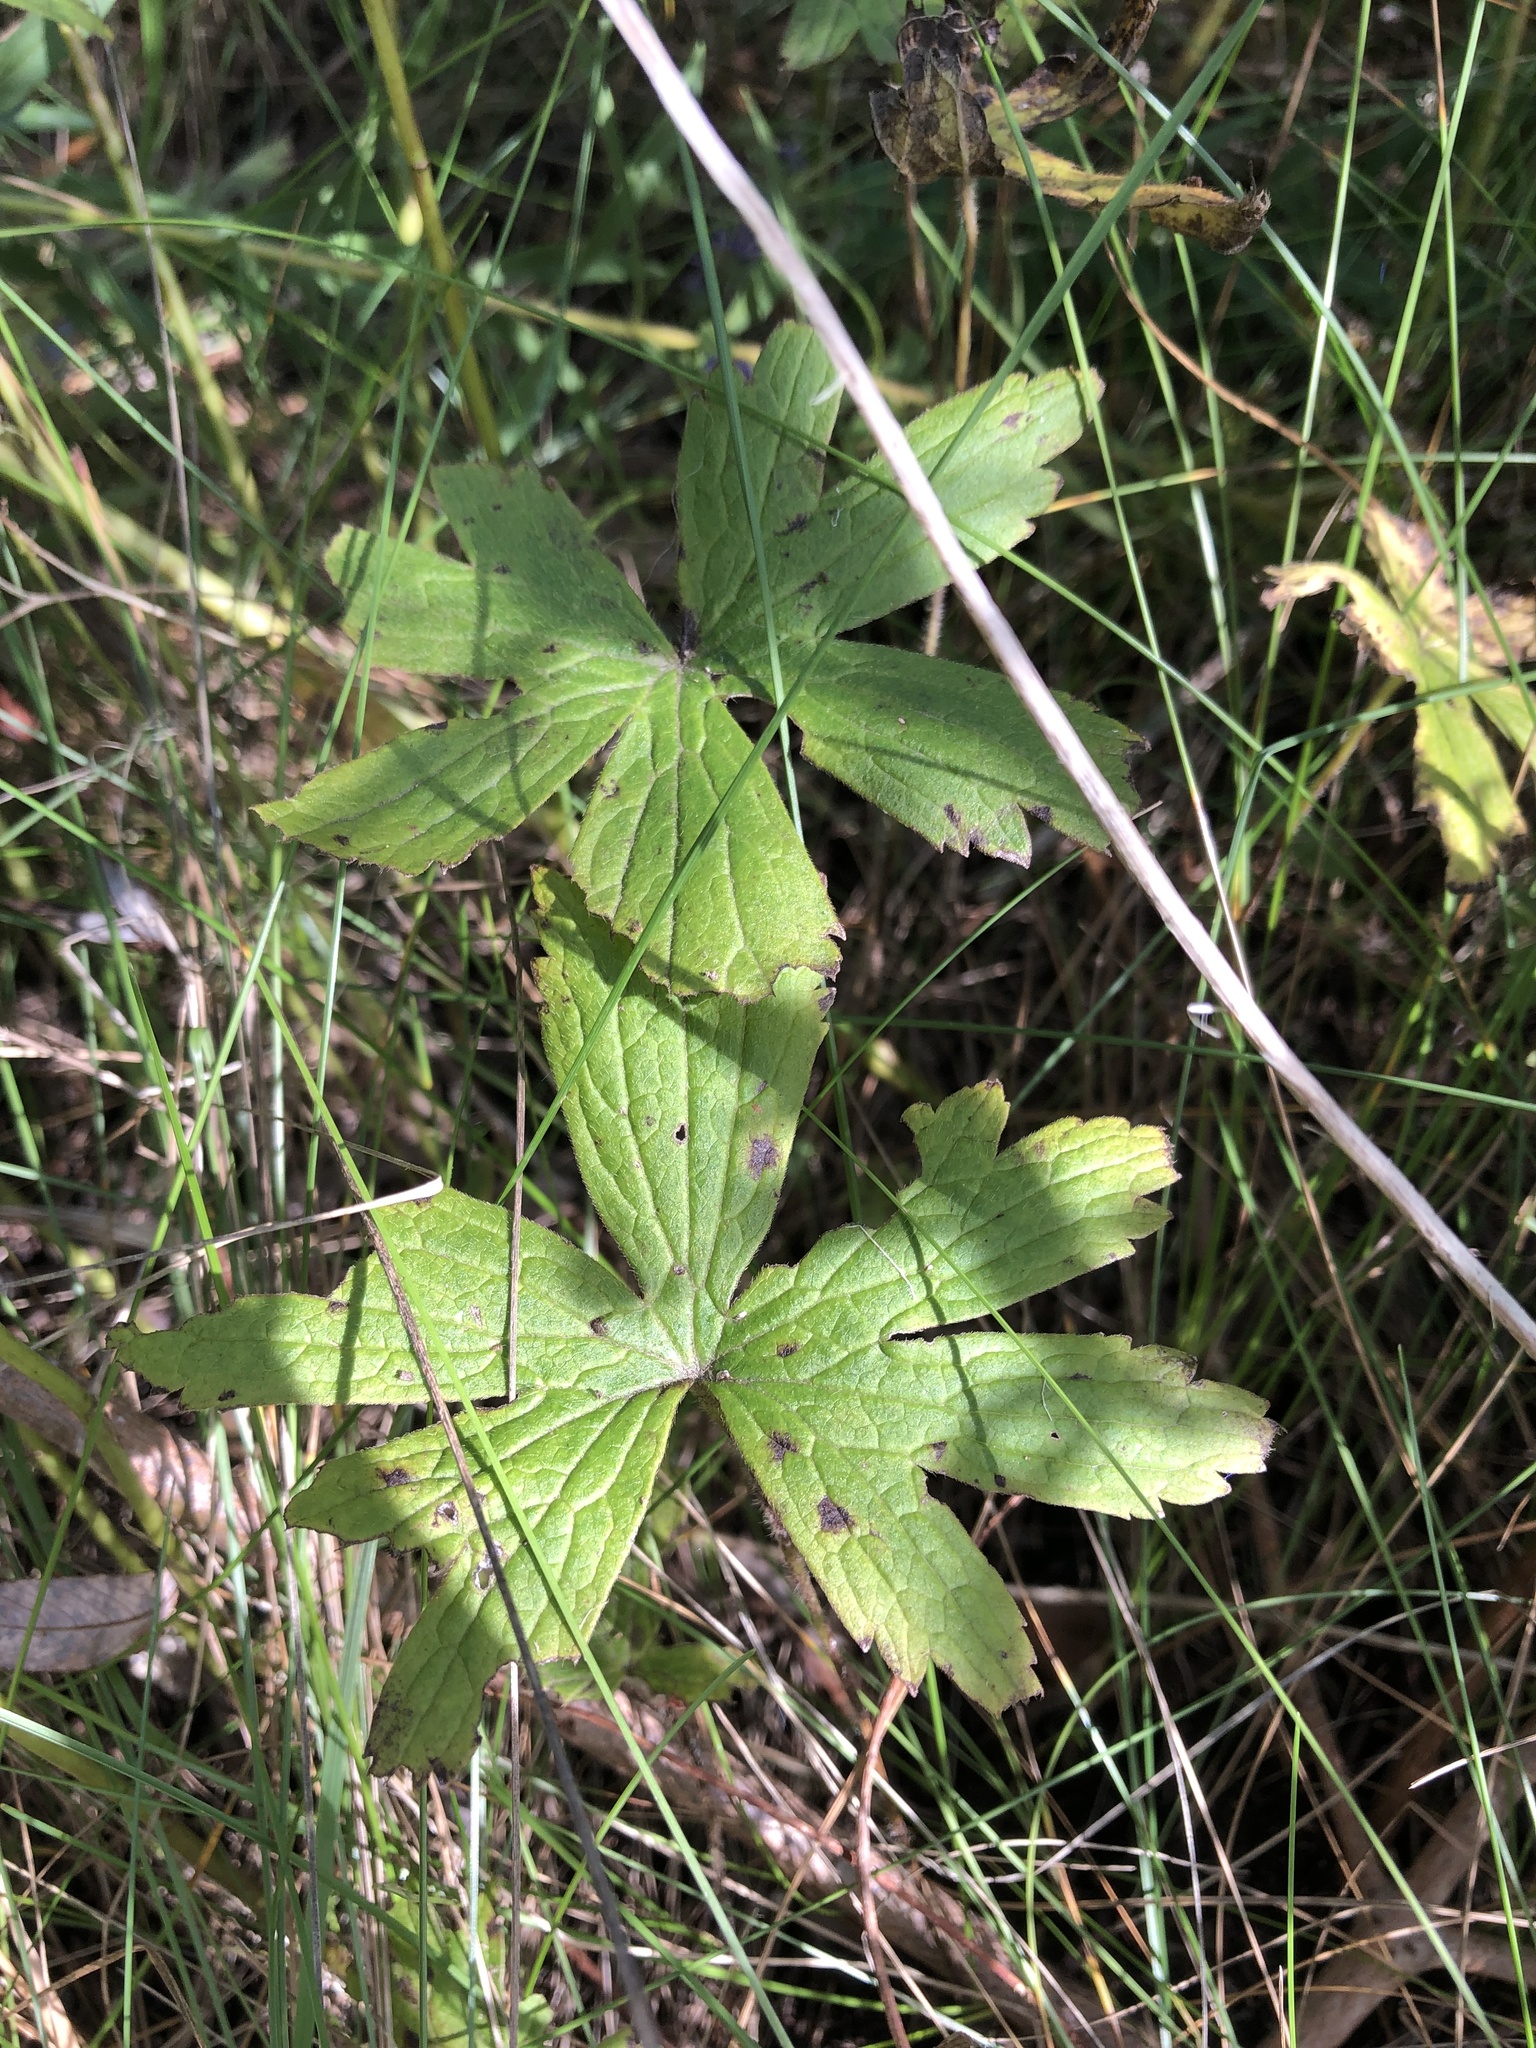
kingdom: Plantae
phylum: Tracheophyta
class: Magnoliopsida
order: Ranunculales
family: Ranunculaceae
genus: Anemonastrum
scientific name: Anemonastrum canadense
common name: Canada anemone
